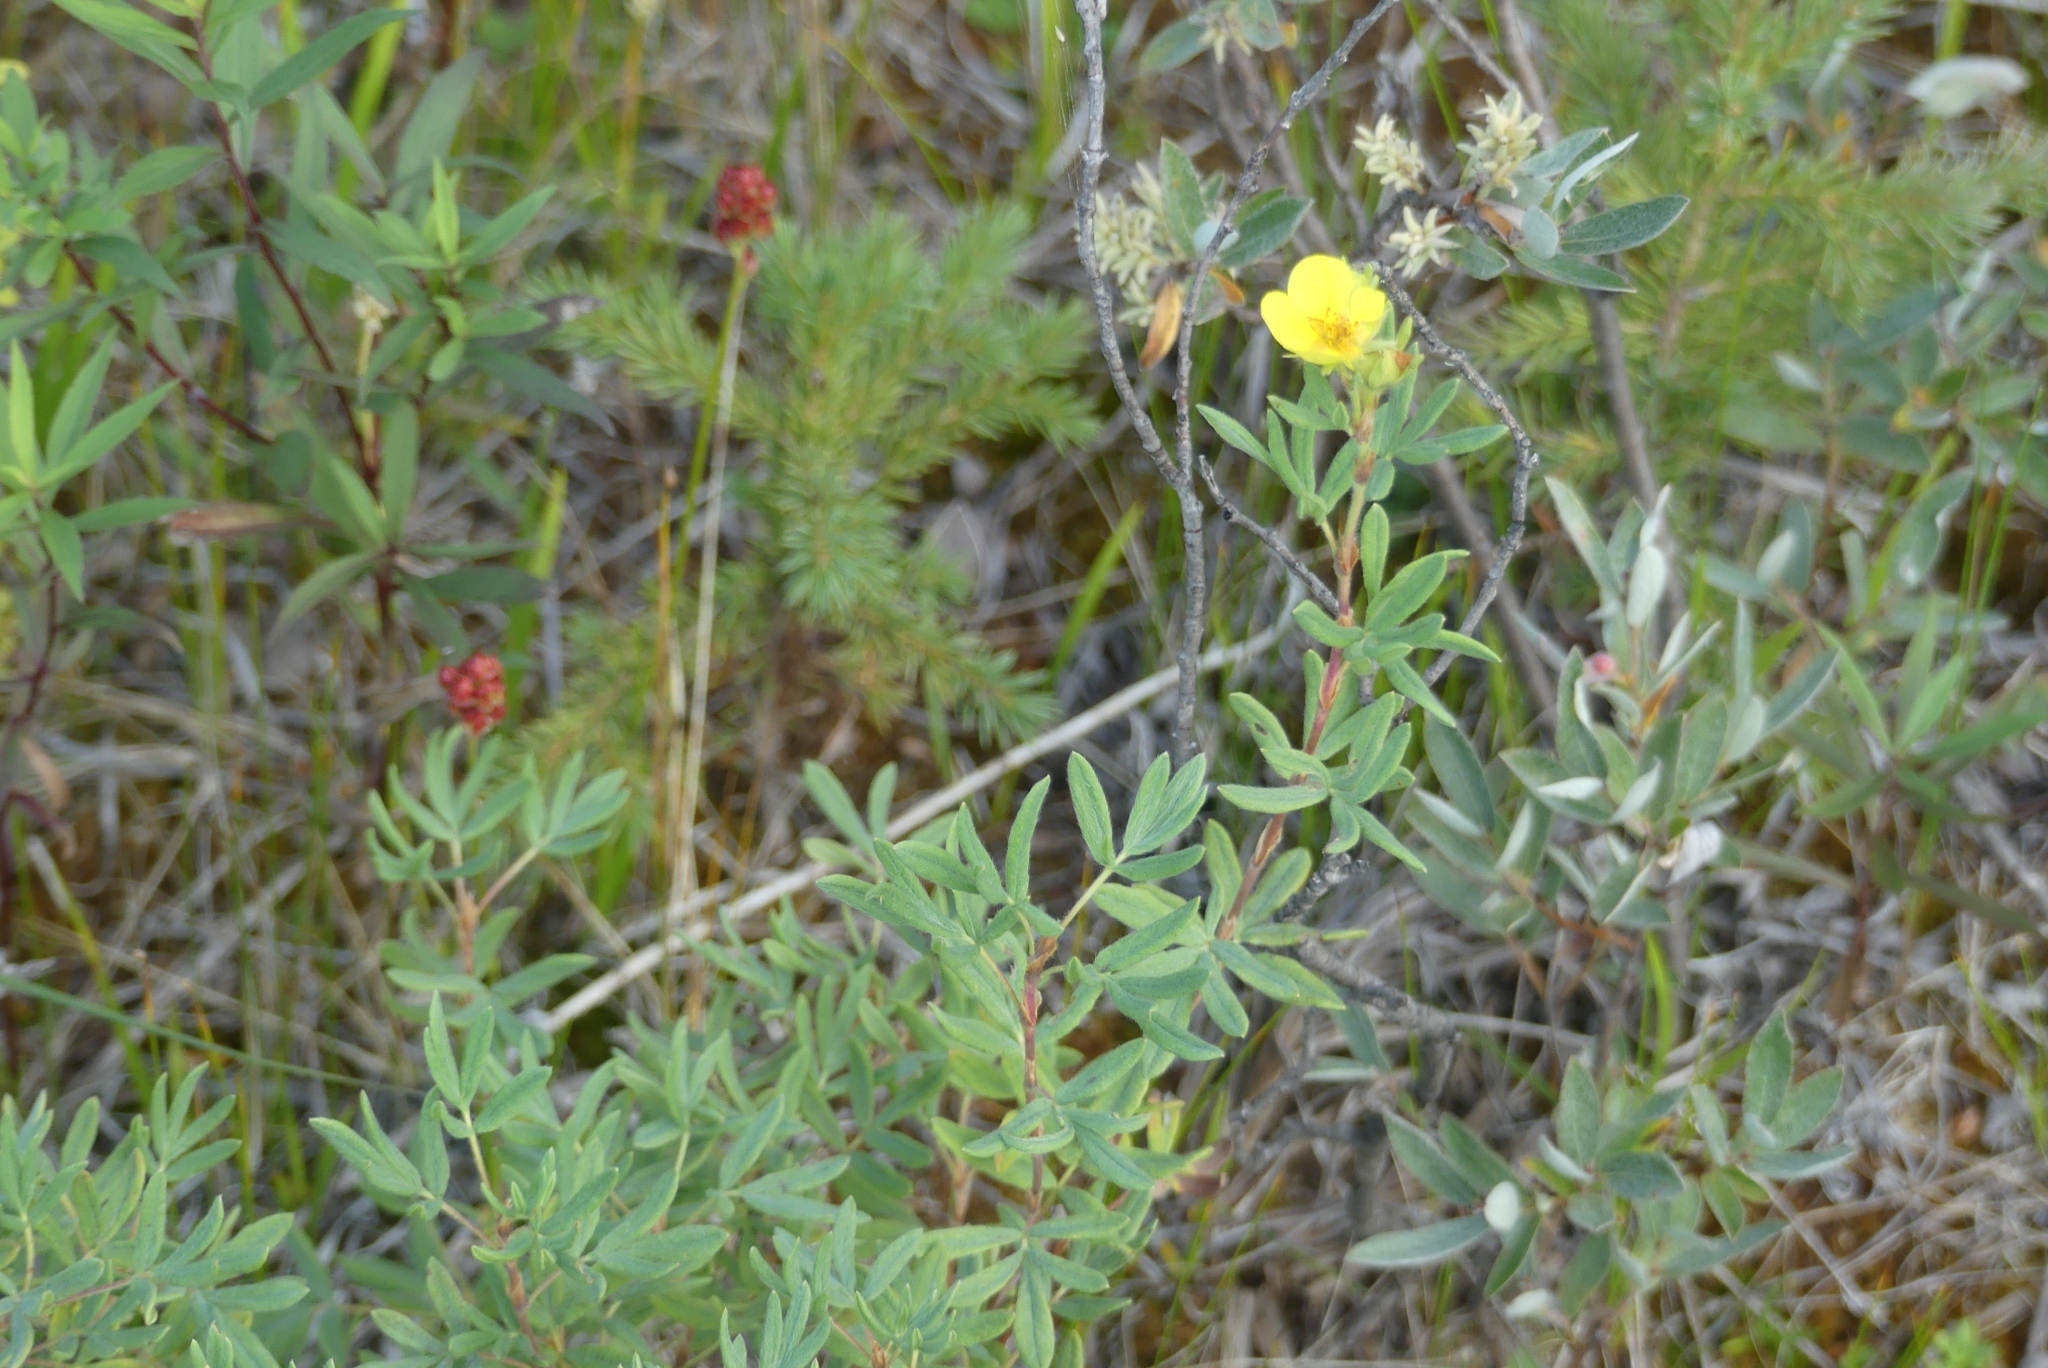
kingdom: Plantae
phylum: Tracheophyta
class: Magnoliopsida
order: Rosales
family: Rosaceae
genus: Dasiphora
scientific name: Dasiphora fruticosa
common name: Shrubby cinquefoil
